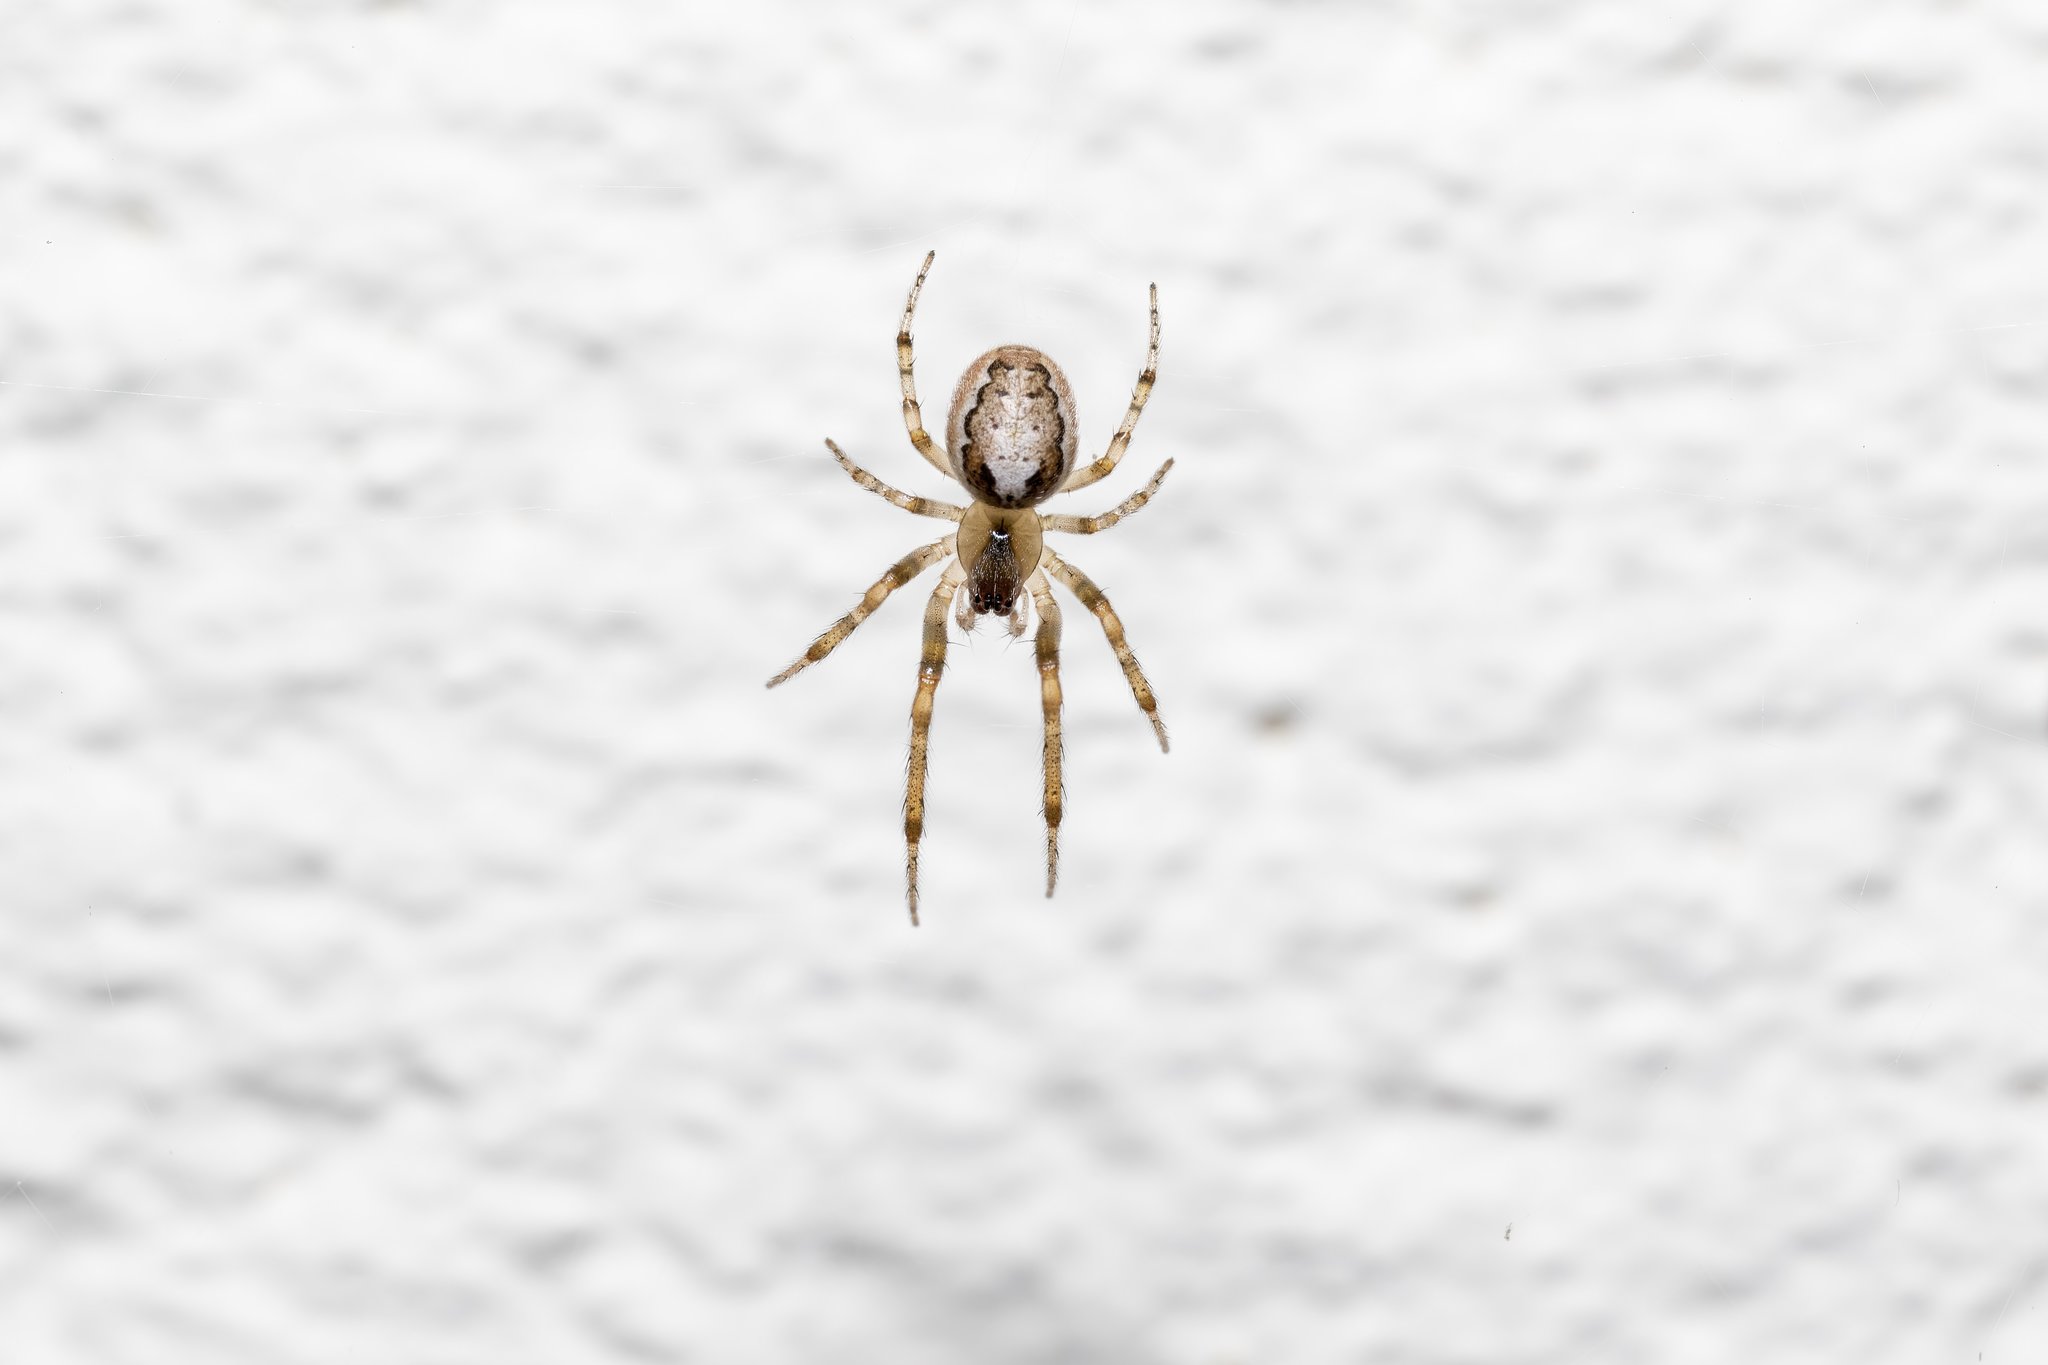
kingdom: Animalia
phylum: Arthropoda
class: Arachnida
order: Araneae
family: Araneidae
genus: Zygiella
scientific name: Zygiella x-notata
